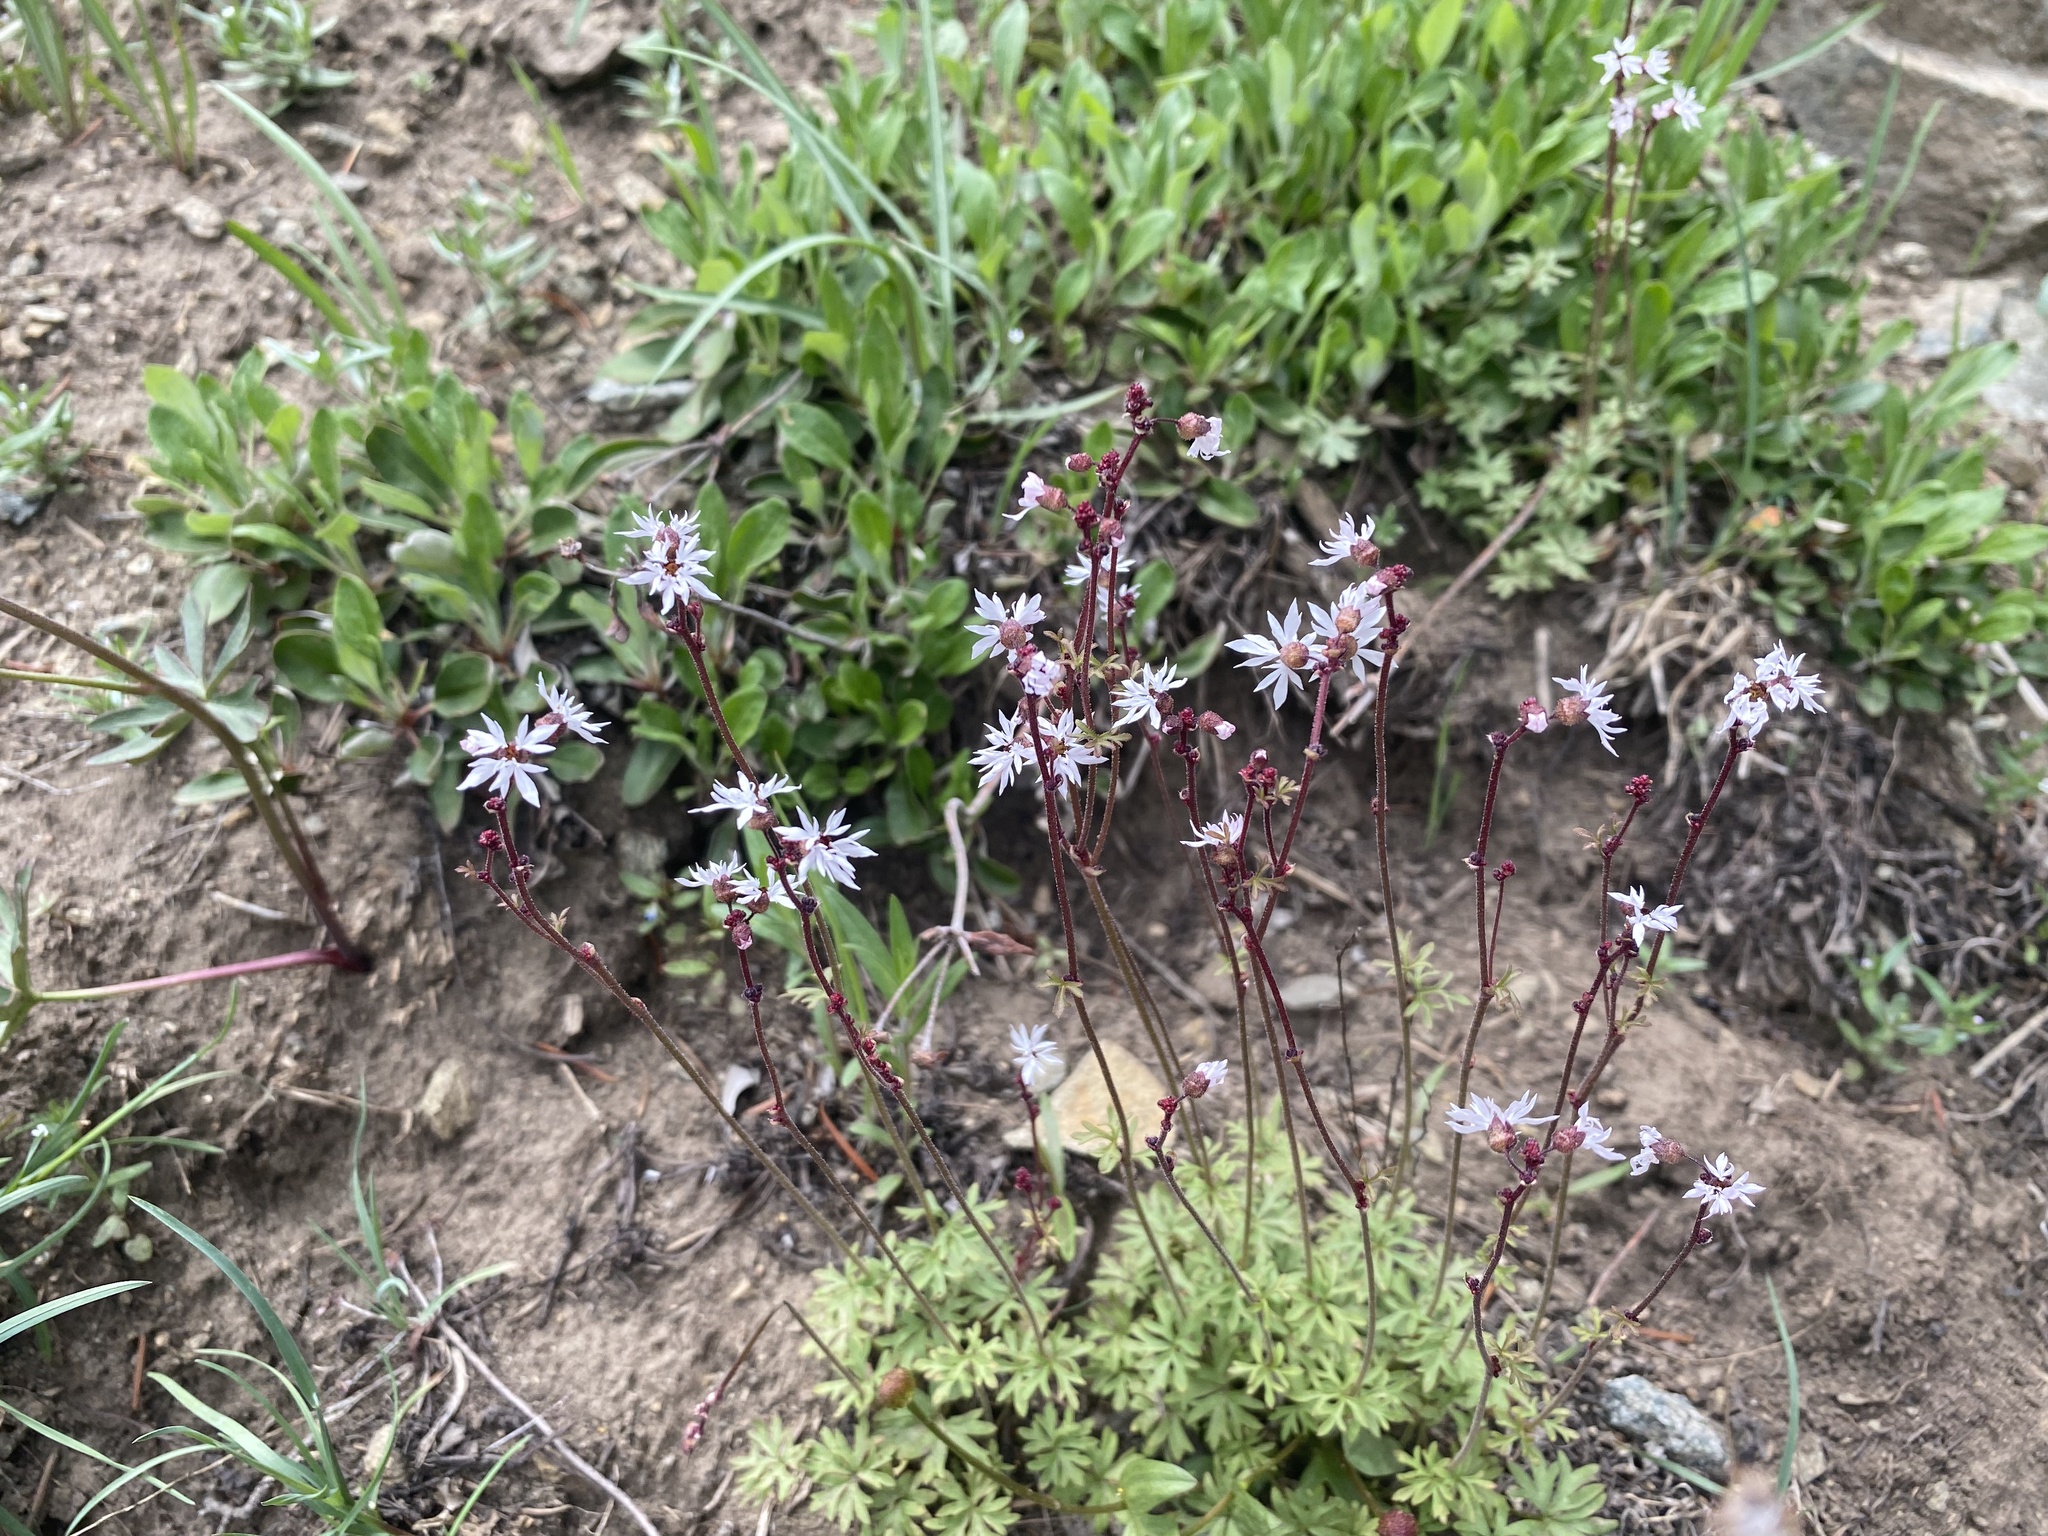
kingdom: Plantae
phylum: Tracheophyta
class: Magnoliopsida
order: Saxifragales
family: Saxifragaceae
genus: Lithophragma
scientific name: Lithophragma glabrum
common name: Bulbous prairie-star
